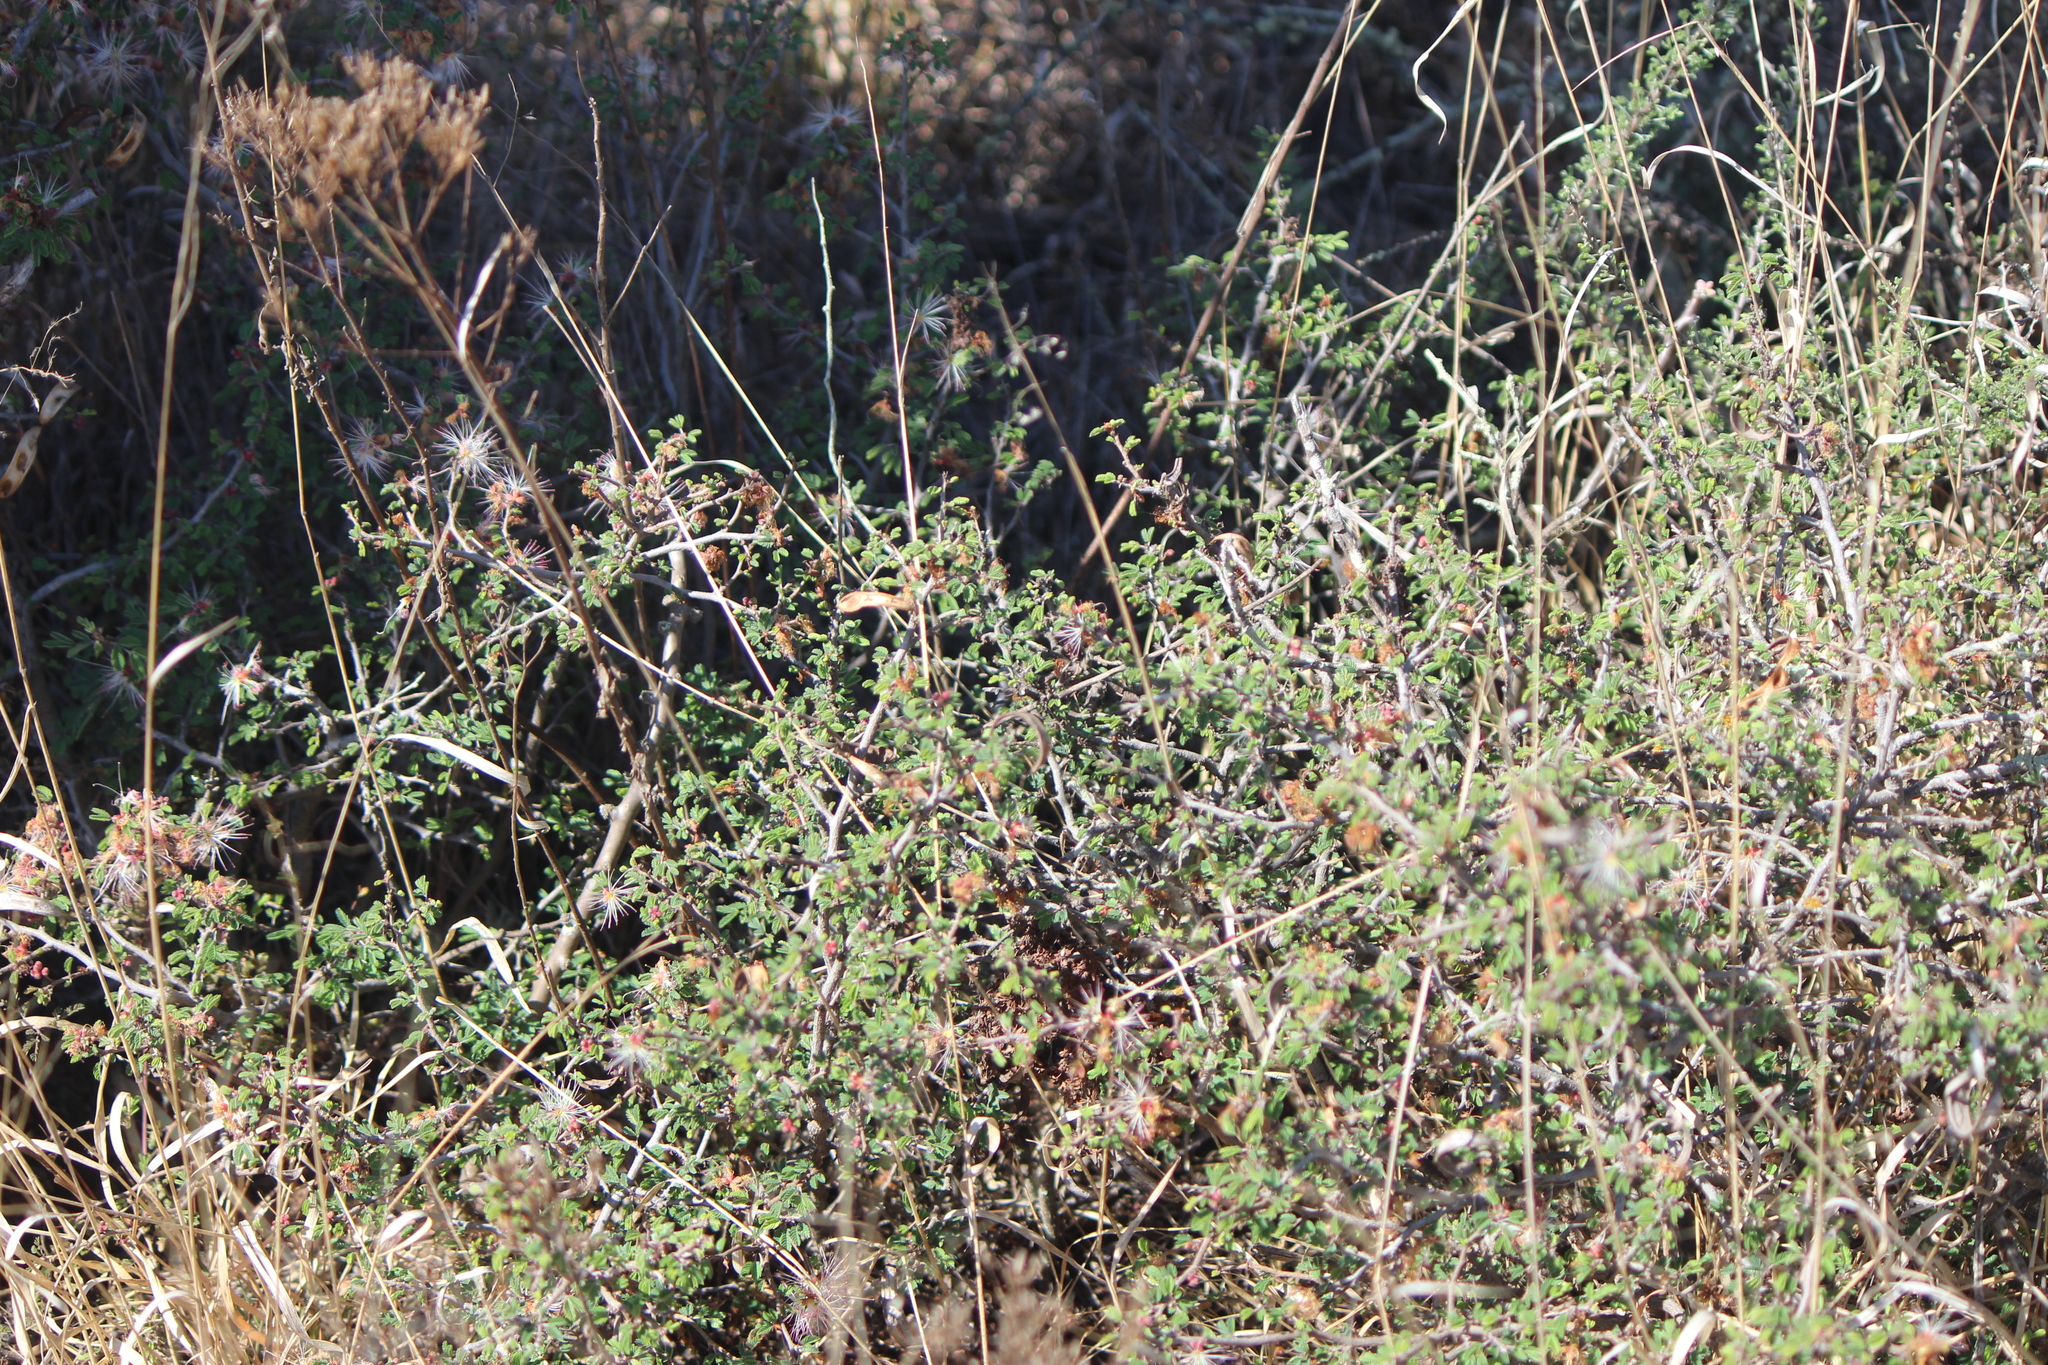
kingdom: Plantae
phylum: Tracheophyta
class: Magnoliopsida
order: Fabales
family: Fabaceae
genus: Calliandra
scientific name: Calliandra eriophylla
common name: Fairy-duster
